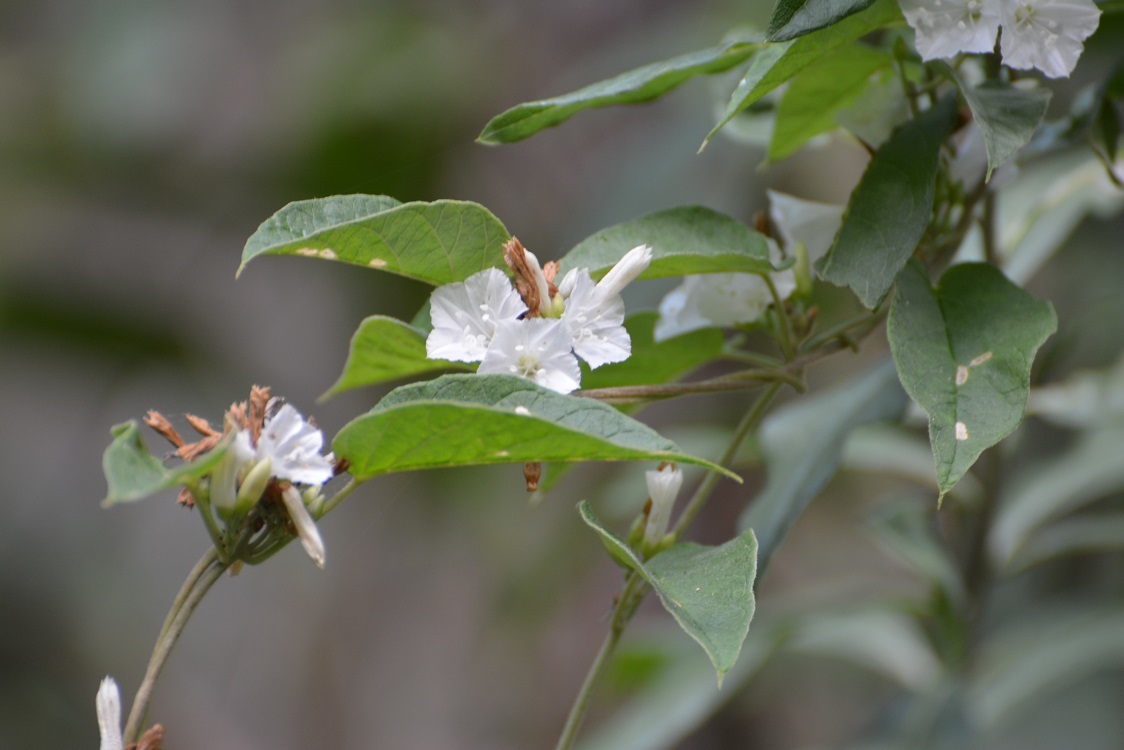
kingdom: Plantae
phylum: Tracheophyta
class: Magnoliopsida
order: Solanales
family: Convolvulaceae
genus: Jacquemontia
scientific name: Jacquemontia nodiflora
